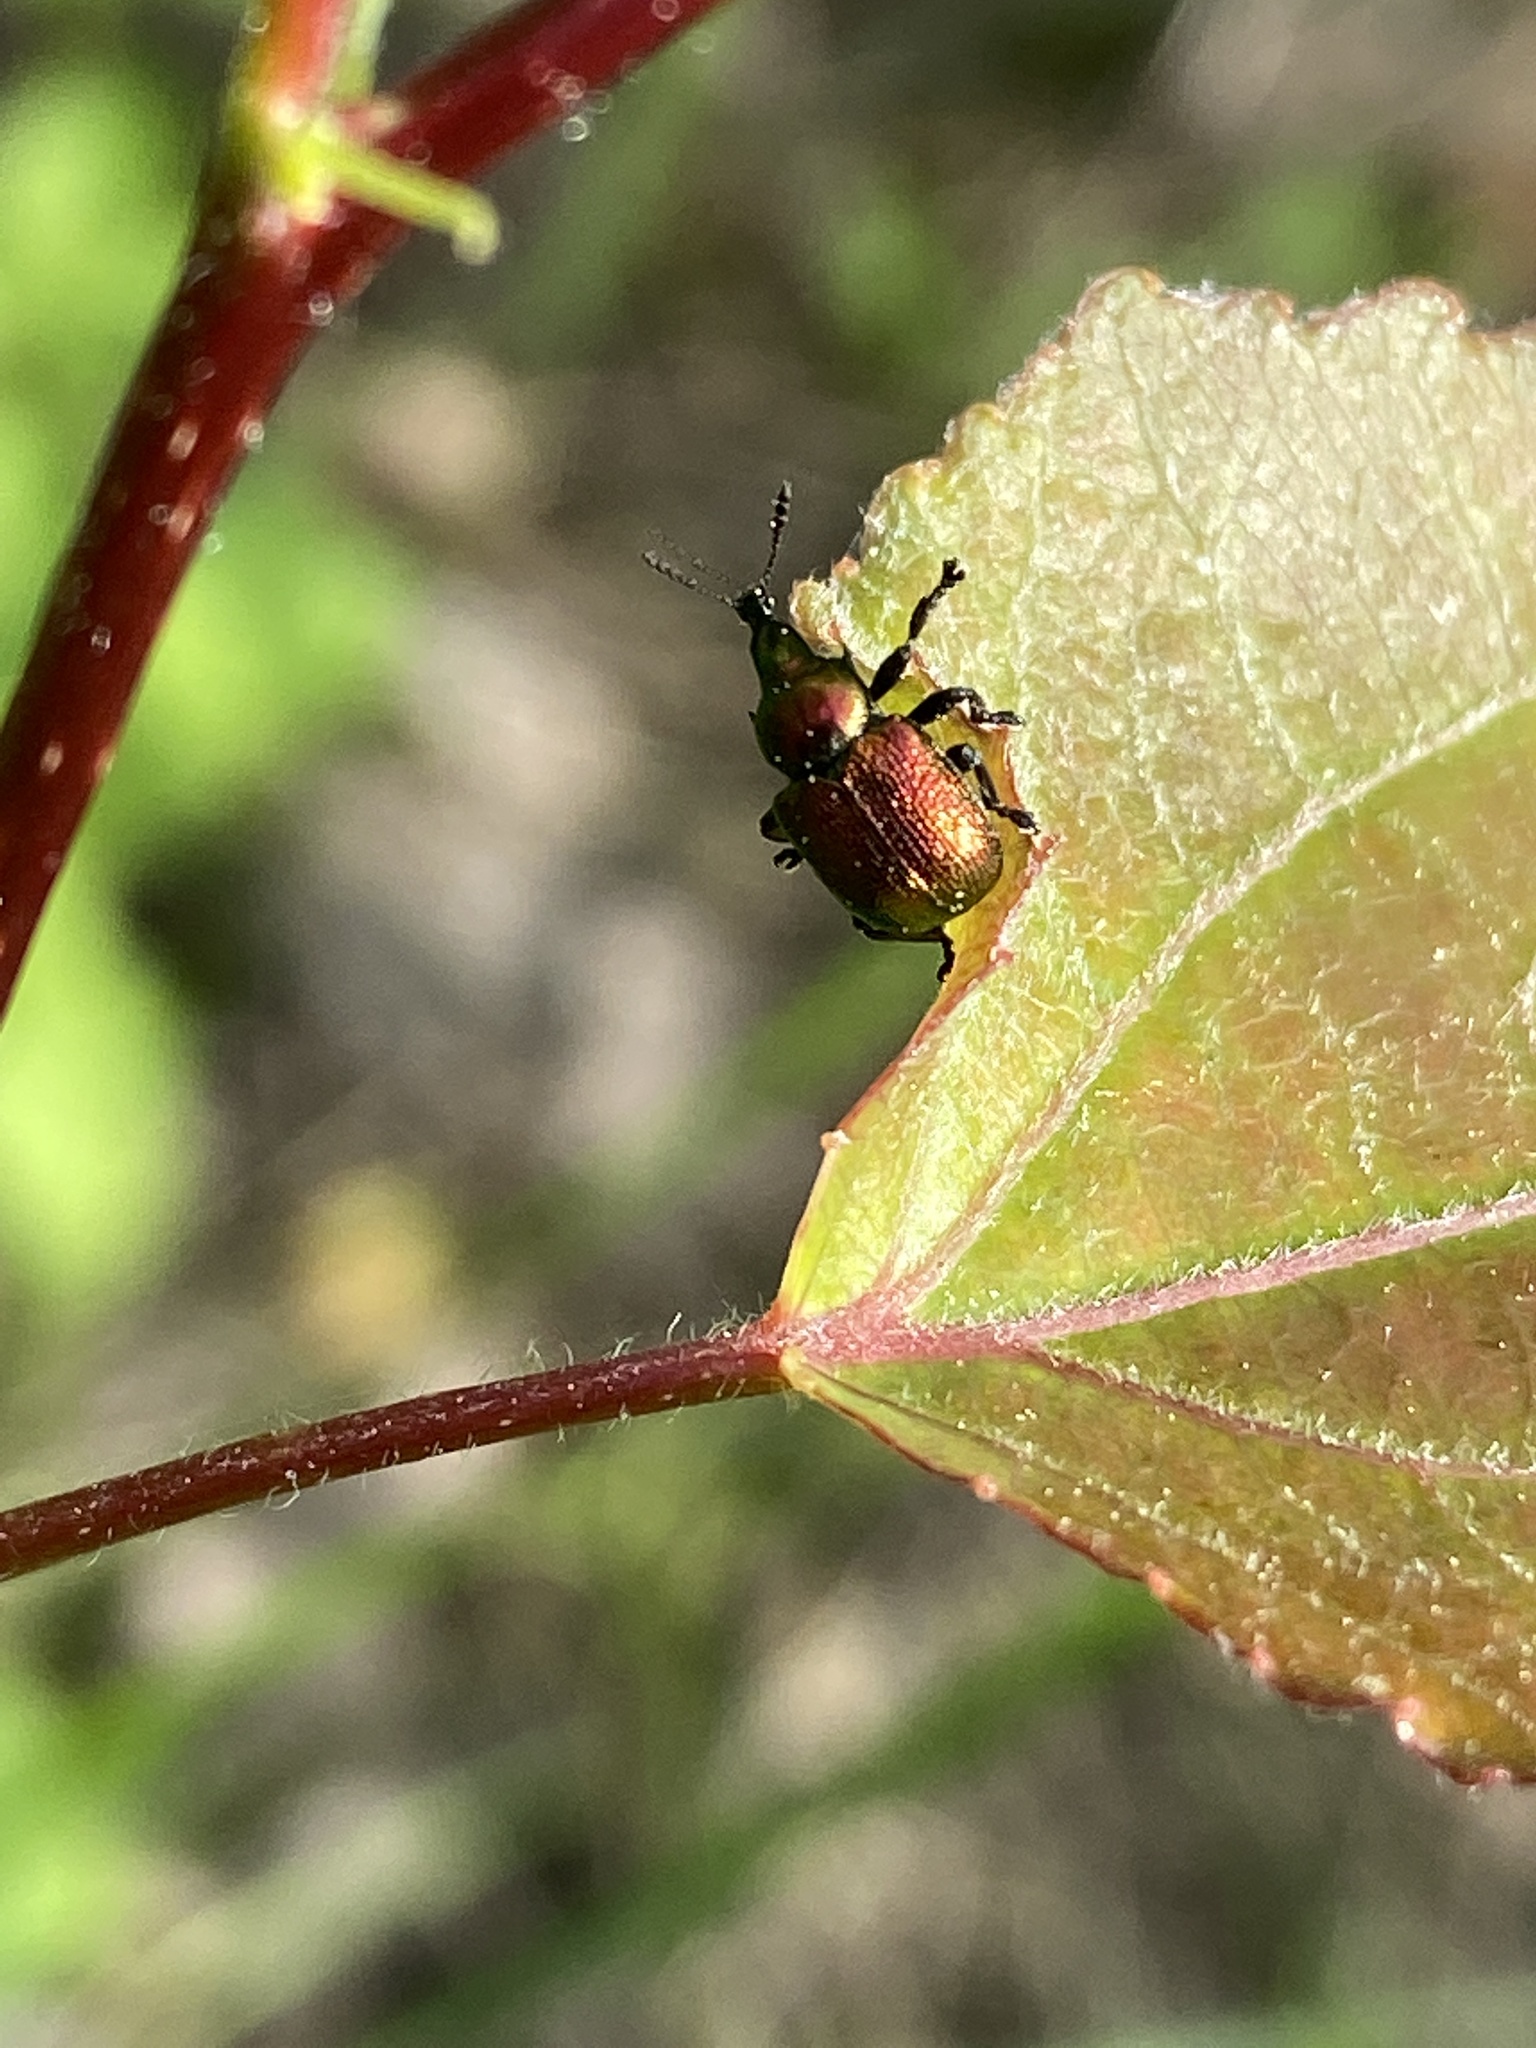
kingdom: Animalia
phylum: Arthropoda
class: Insecta
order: Coleoptera
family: Attelabidae
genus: Byctiscus
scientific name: Byctiscus populi
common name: Leaf-rolling weevil
